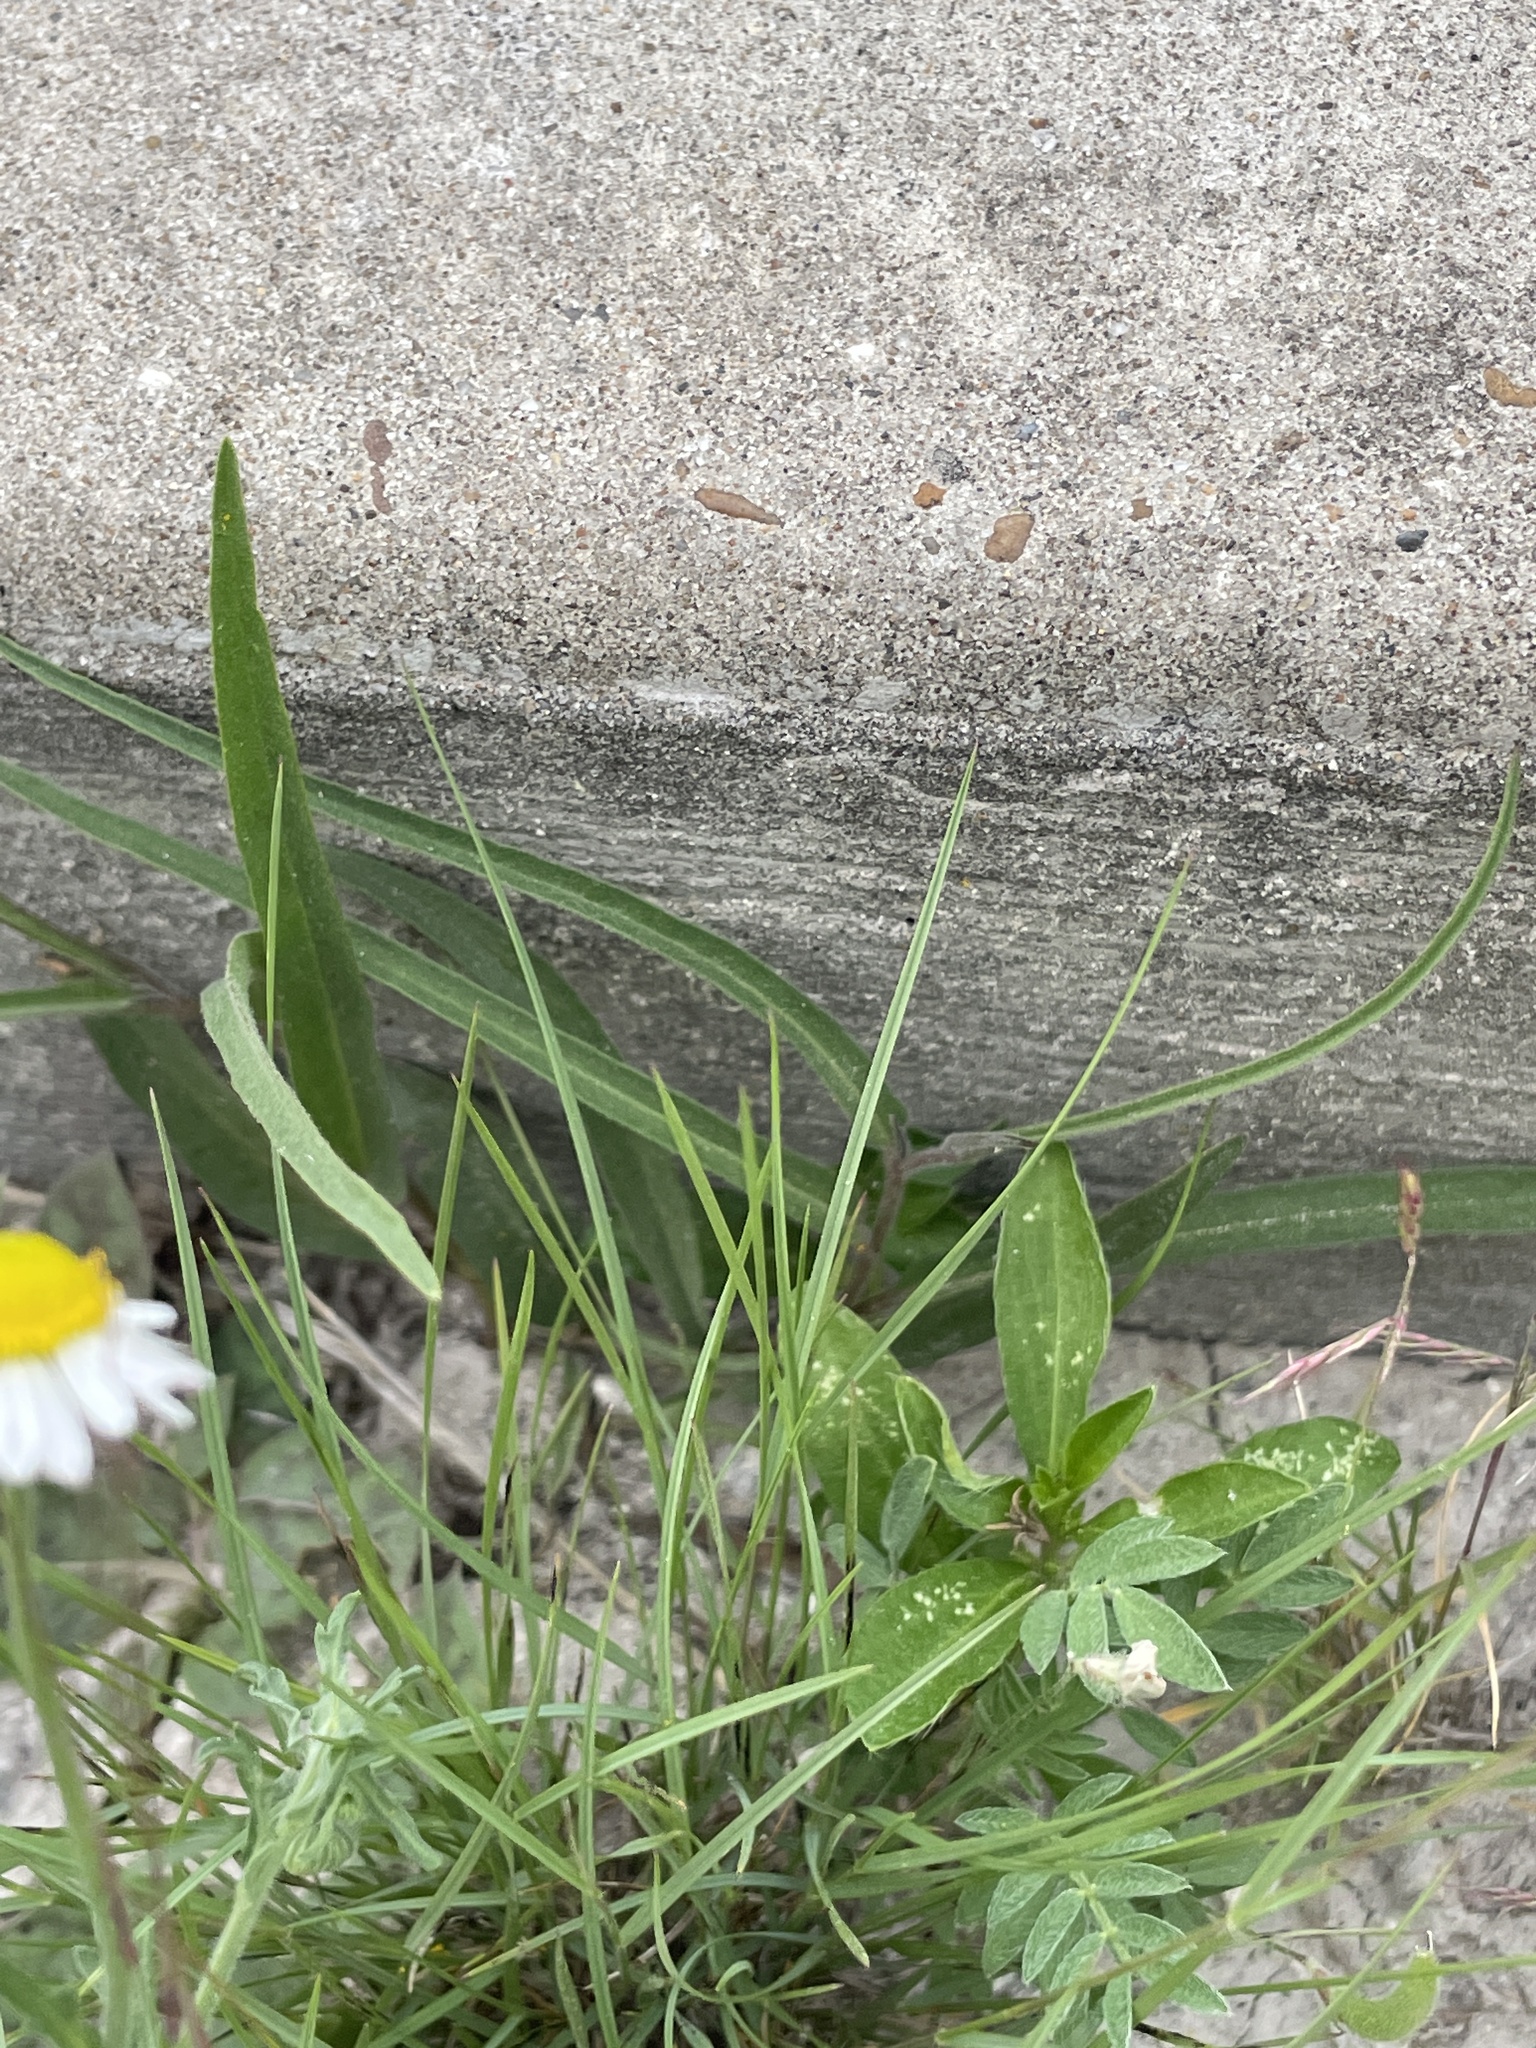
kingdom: Plantae
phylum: Tracheophyta
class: Magnoliopsida
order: Piperales
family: Aristolochiaceae
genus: Aristolochia
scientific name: Aristolochia erecta
